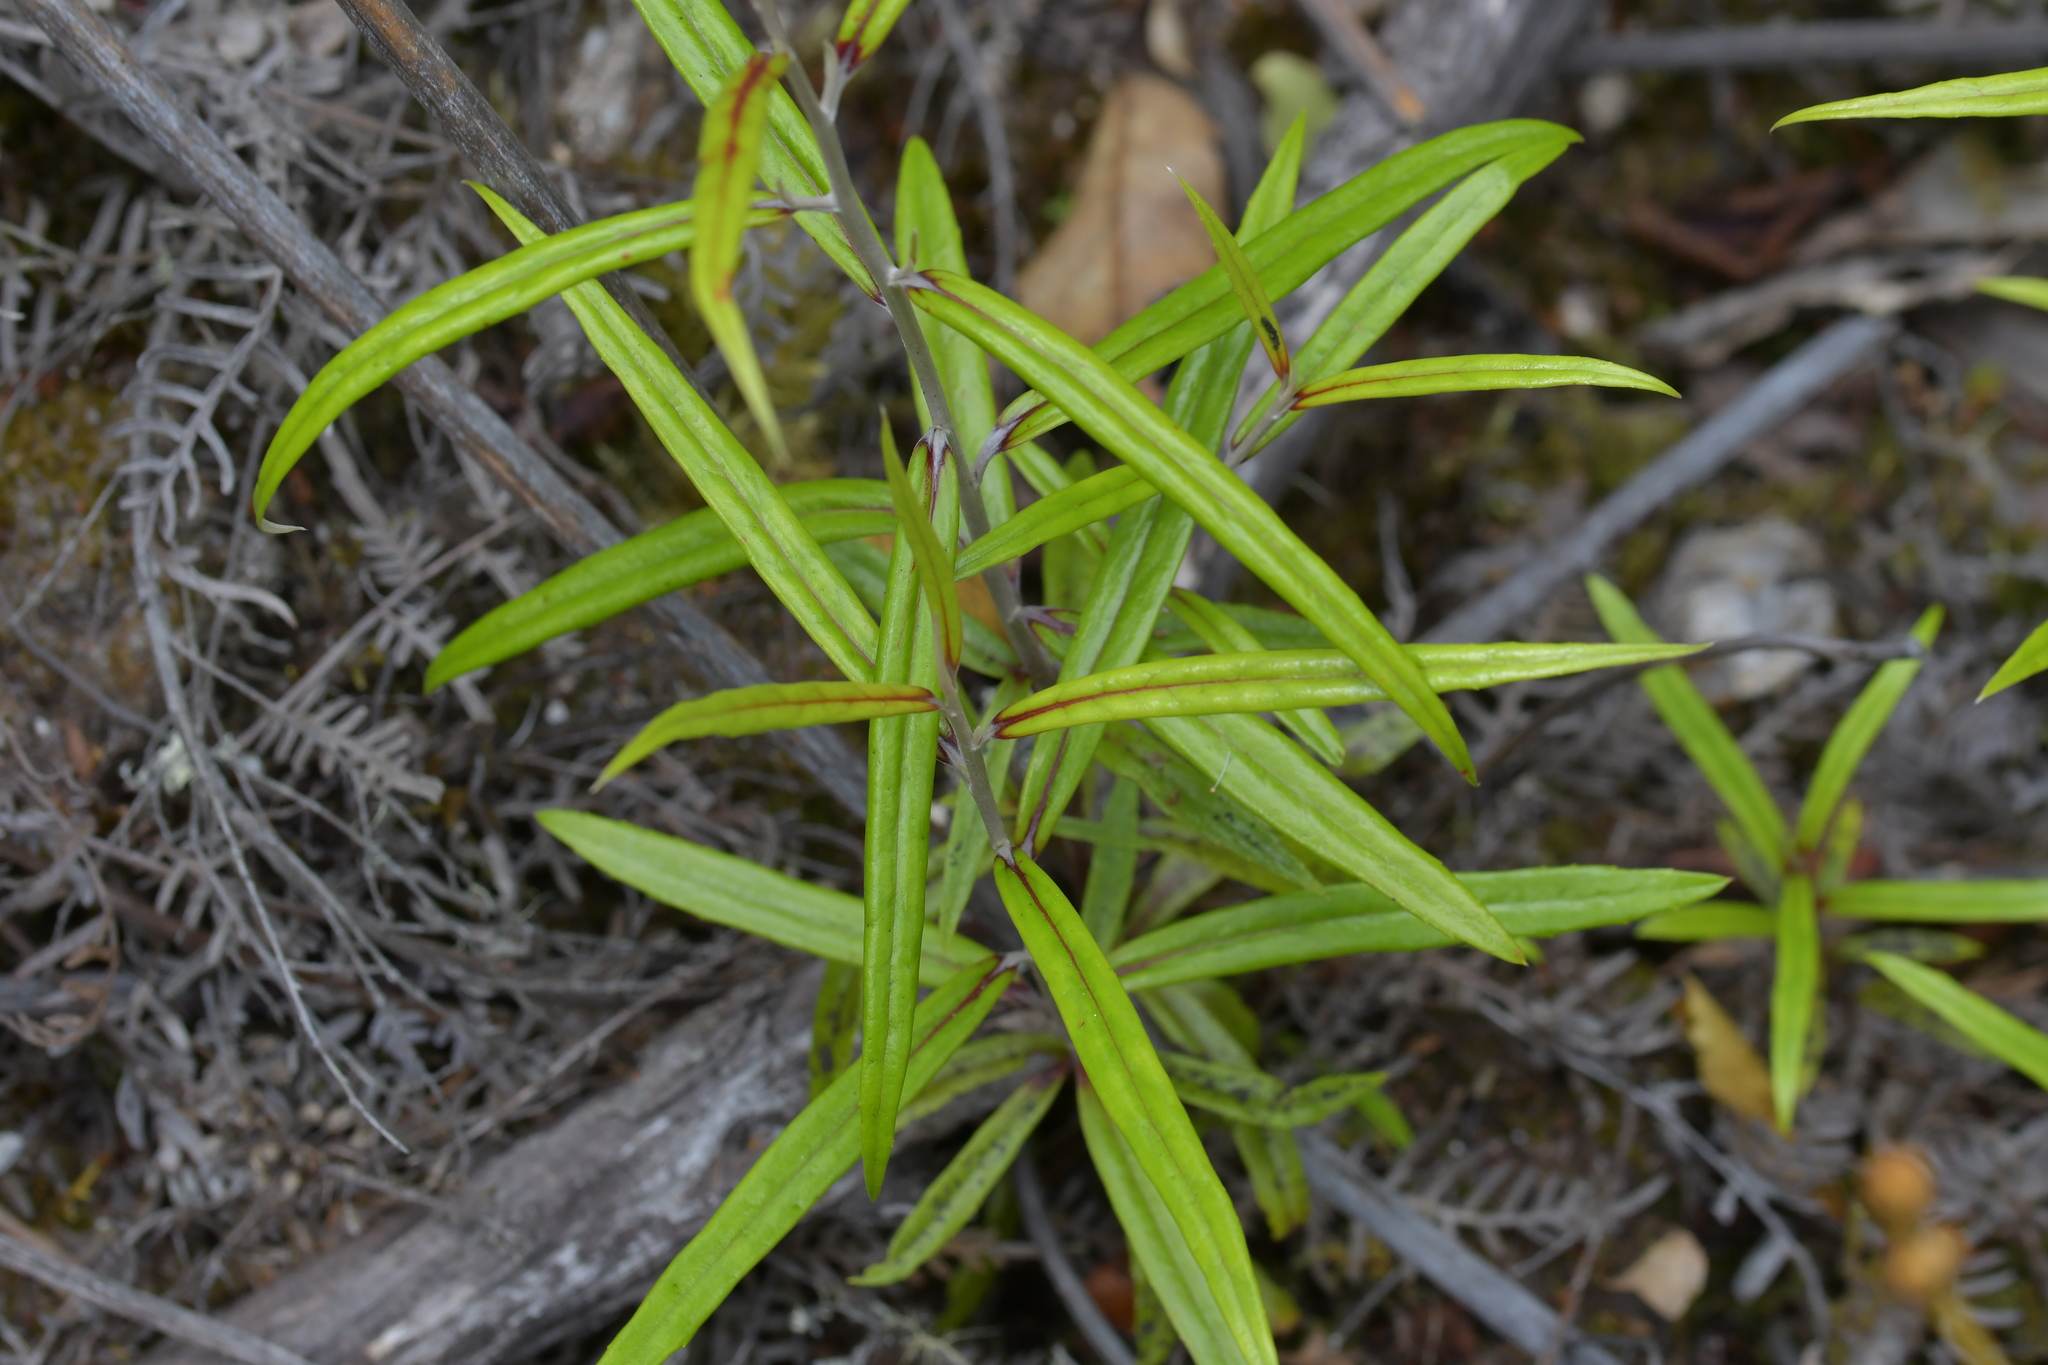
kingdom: Plantae
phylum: Tracheophyta
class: Magnoliopsida
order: Asterales
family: Argophyllaceae
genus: Corokia
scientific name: Corokia buddleioides
